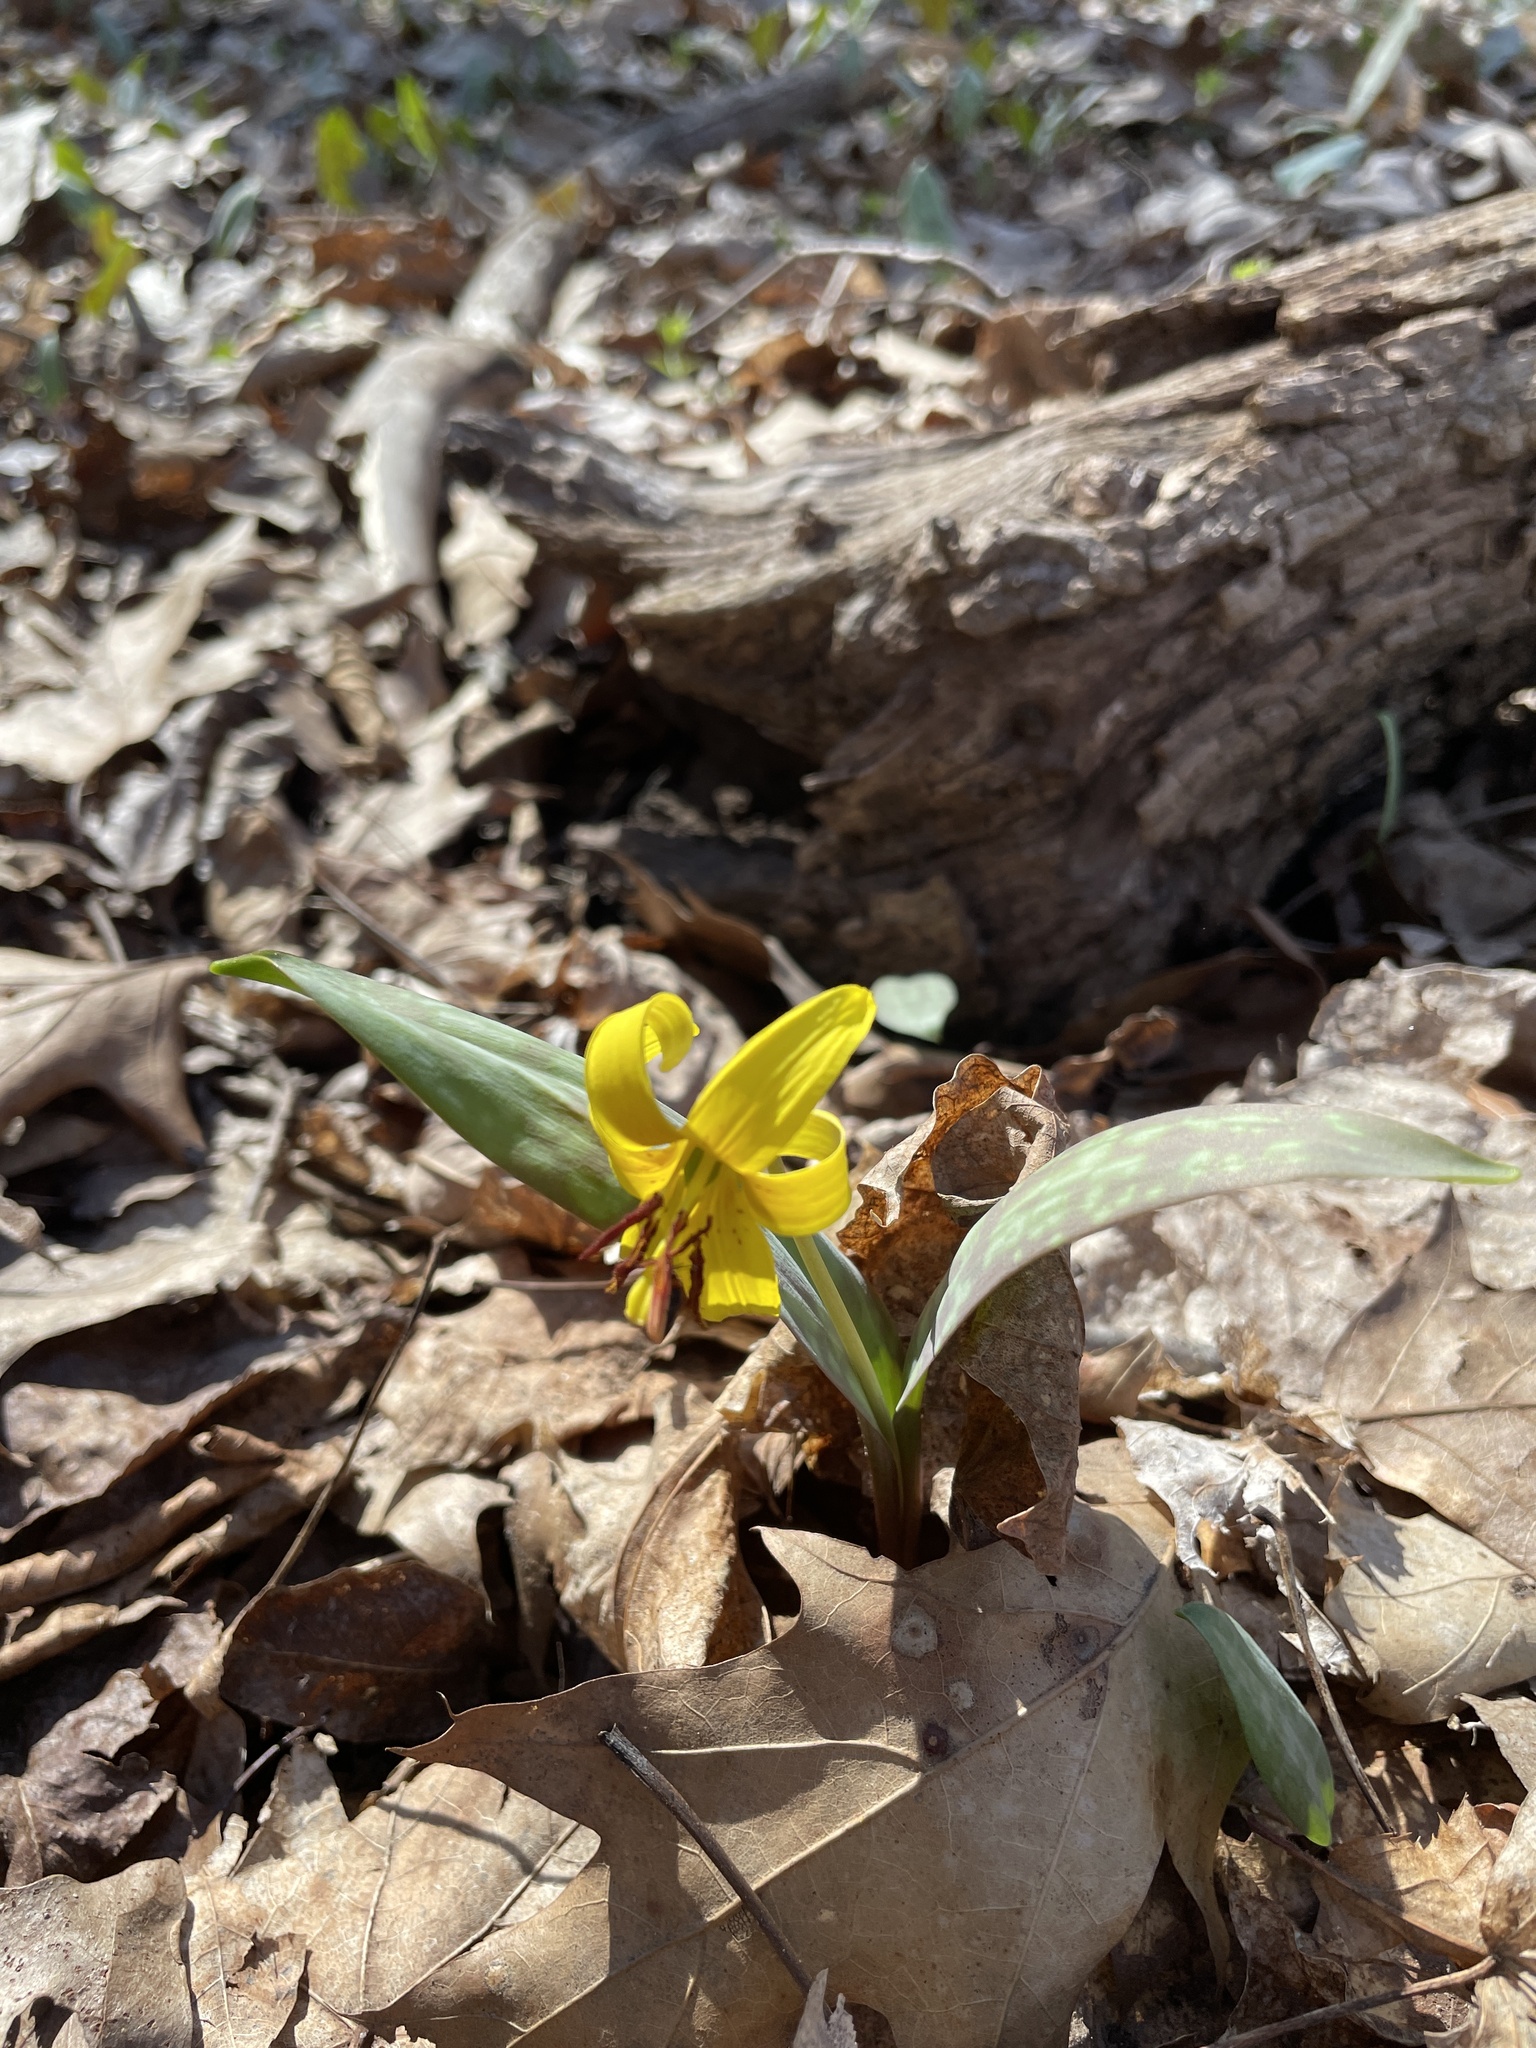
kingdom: Plantae
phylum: Tracheophyta
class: Liliopsida
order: Liliales
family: Liliaceae
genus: Erythronium
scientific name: Erythronium americanum
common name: Yellow adder's-tongue
